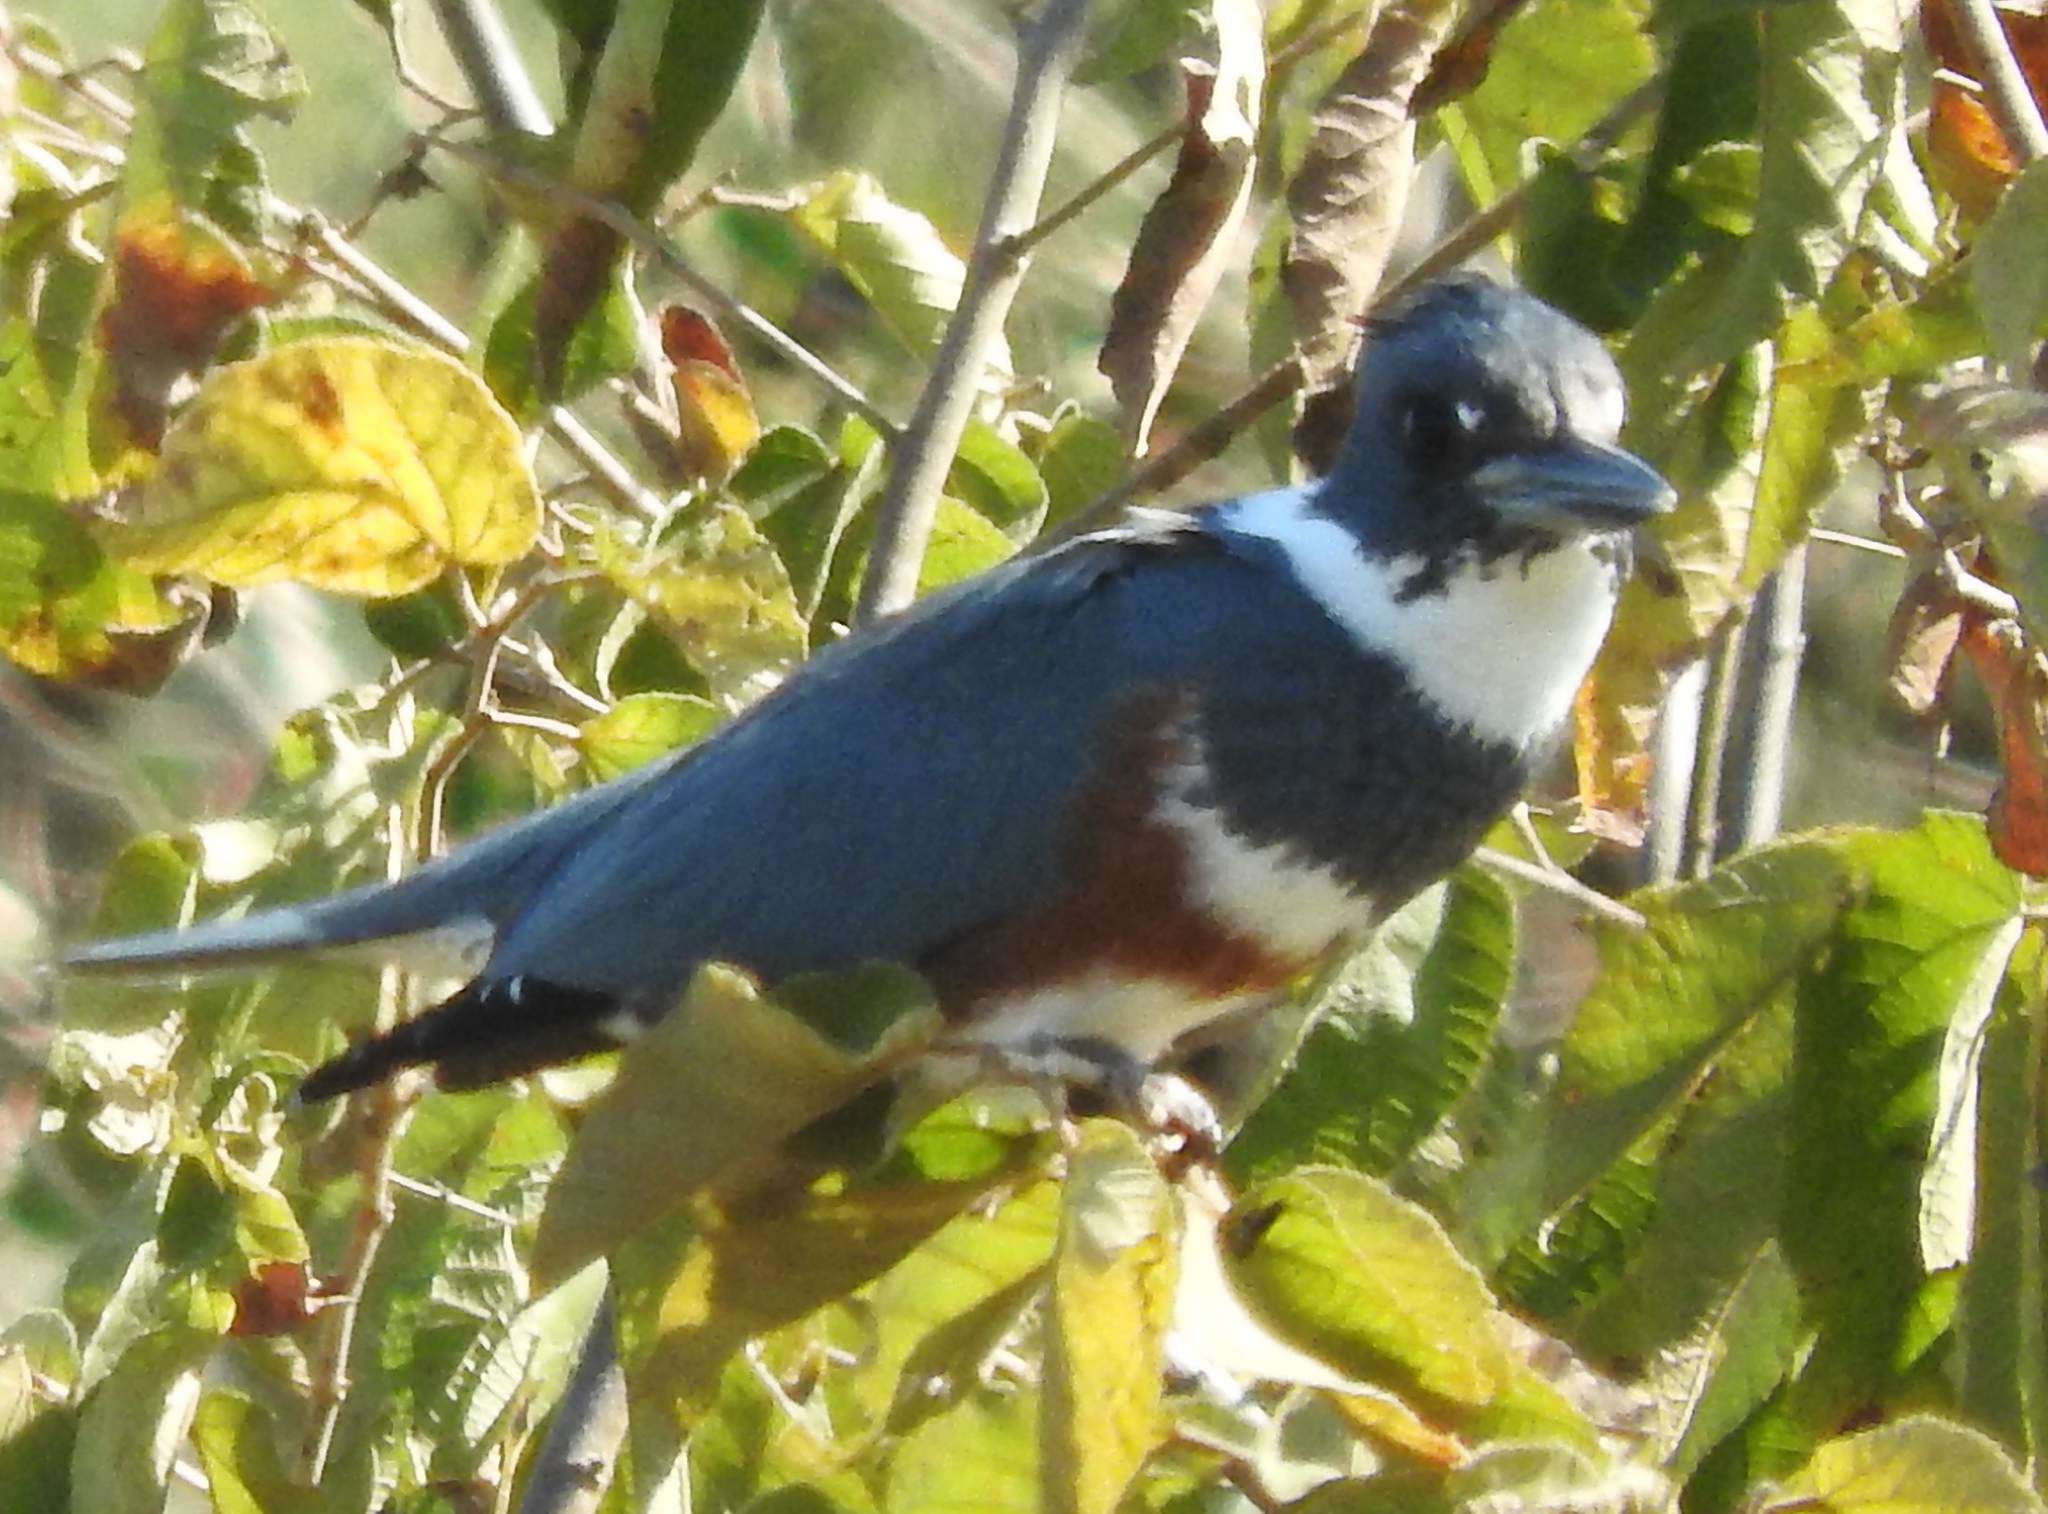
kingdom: Animalia
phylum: Chordata
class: Aves
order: Coraciiformes
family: Alcedinidae
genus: Megaceryle
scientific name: Megaceryle alcyon
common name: Belted kingfisher
